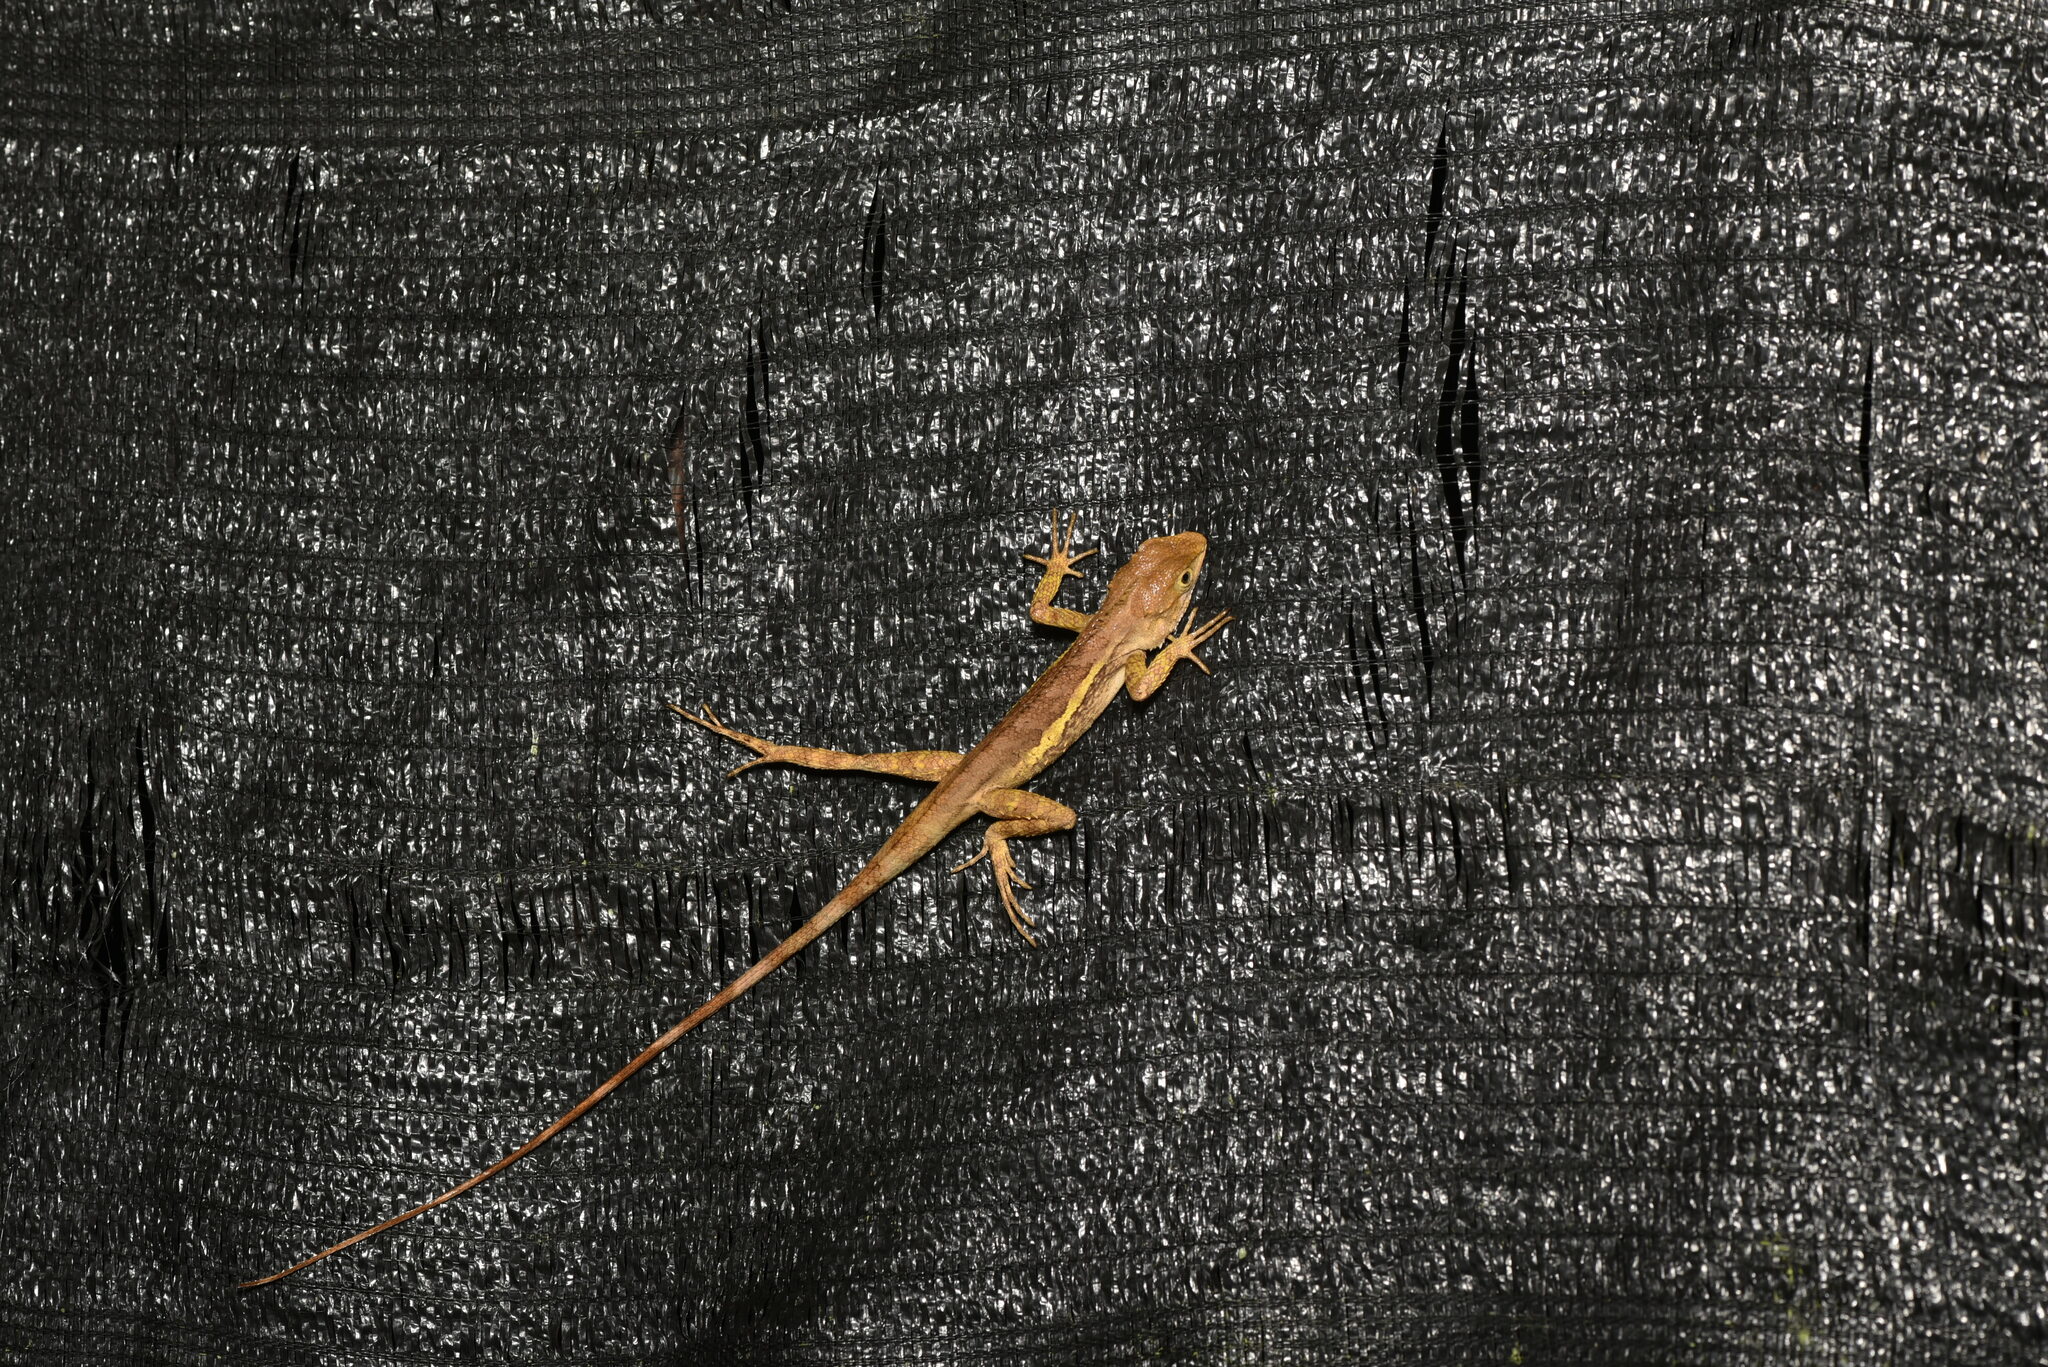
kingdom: Animalia
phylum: Chordata
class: Squamata
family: Agamidae
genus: Diploderma
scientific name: Diploderma swinhonis
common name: Taiwan japalure
